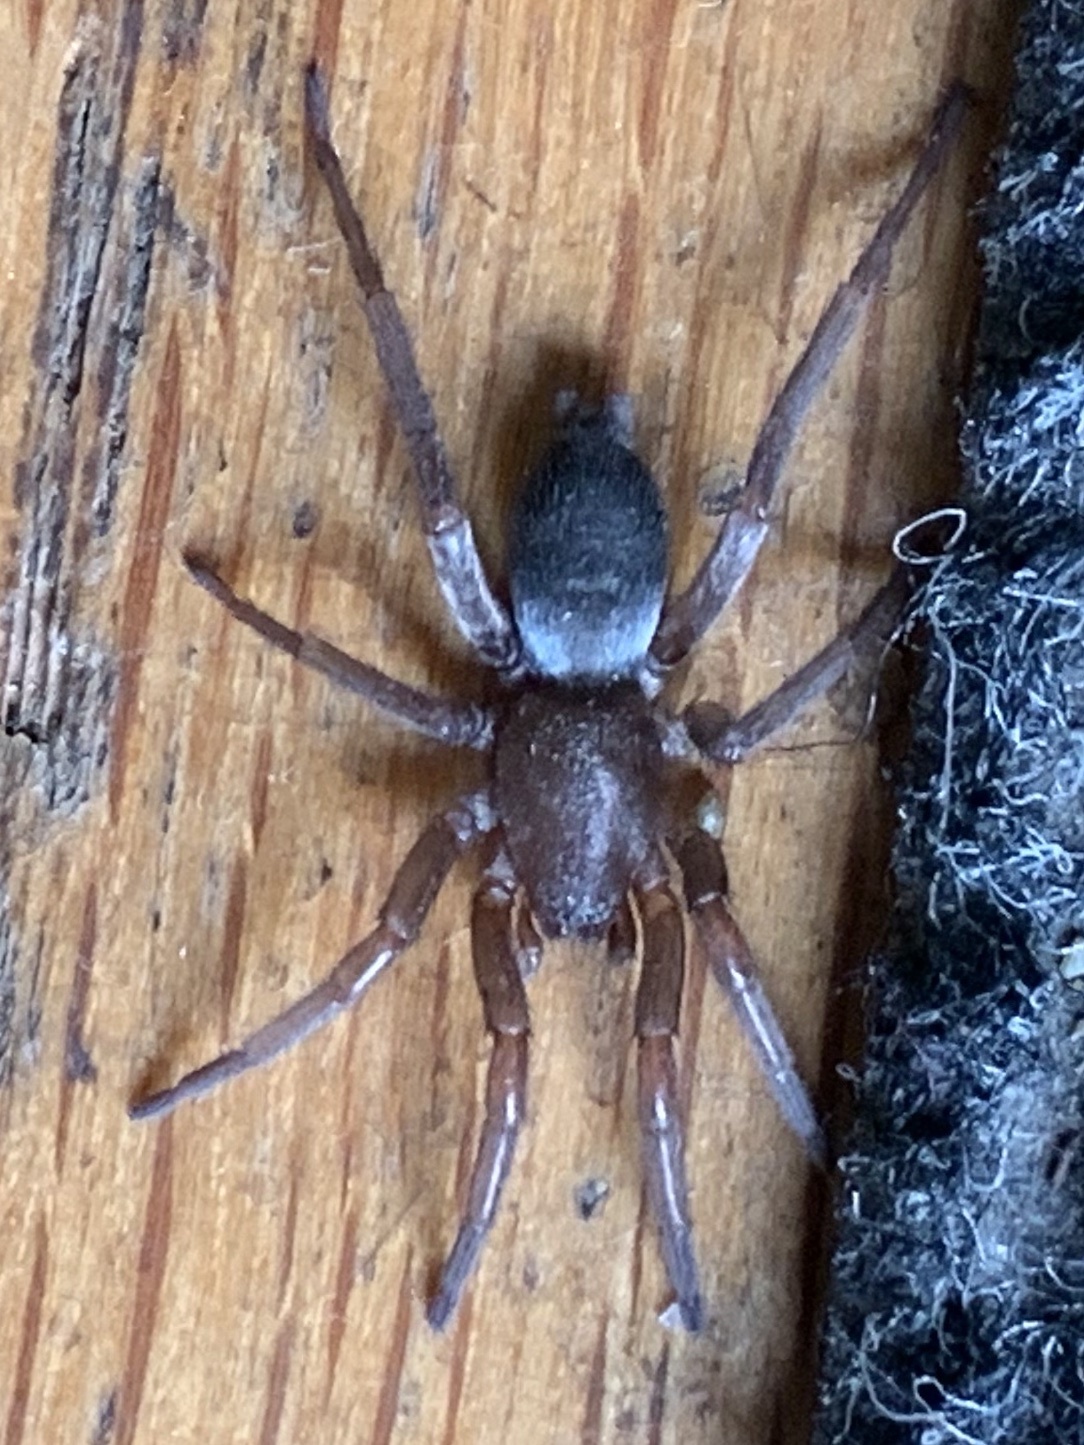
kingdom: Animalia
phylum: Arthropoda
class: Arachnida
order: Araneae
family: Gnaphosidae
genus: Scotophaeus
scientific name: Scotophaeus blackwalli
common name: Mouse spider
